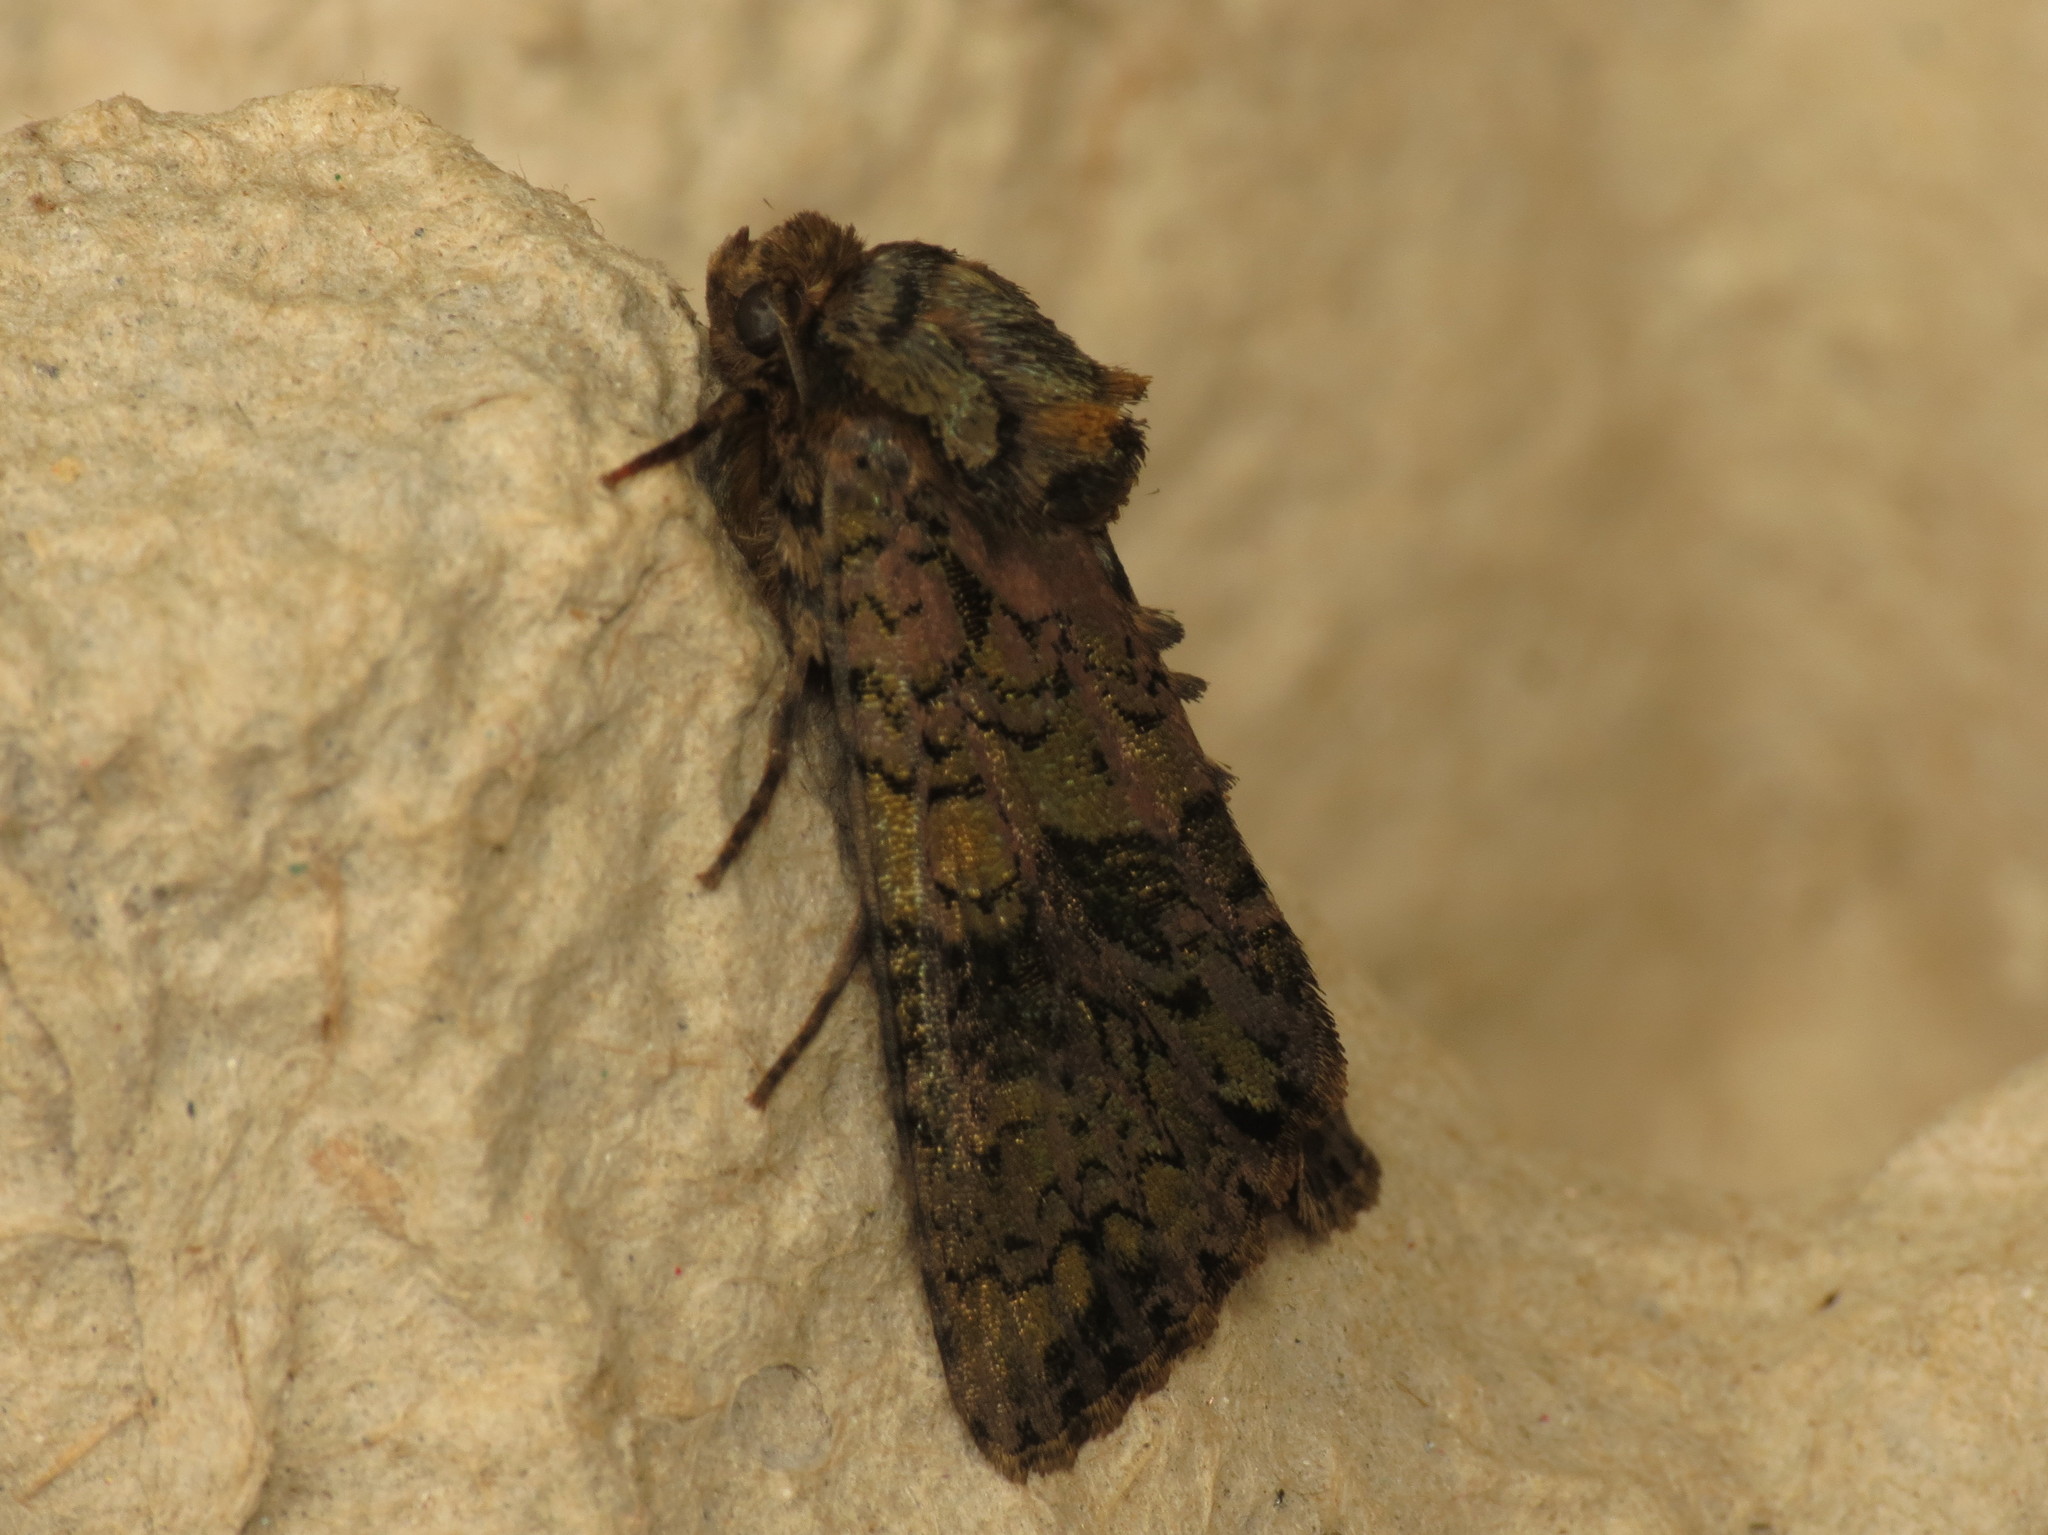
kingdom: Animalia
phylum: Arthropoda
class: Insecta
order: Lepidoptera
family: Noctuidae
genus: Craniophora
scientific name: Craniophora ligustri
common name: Coronet
